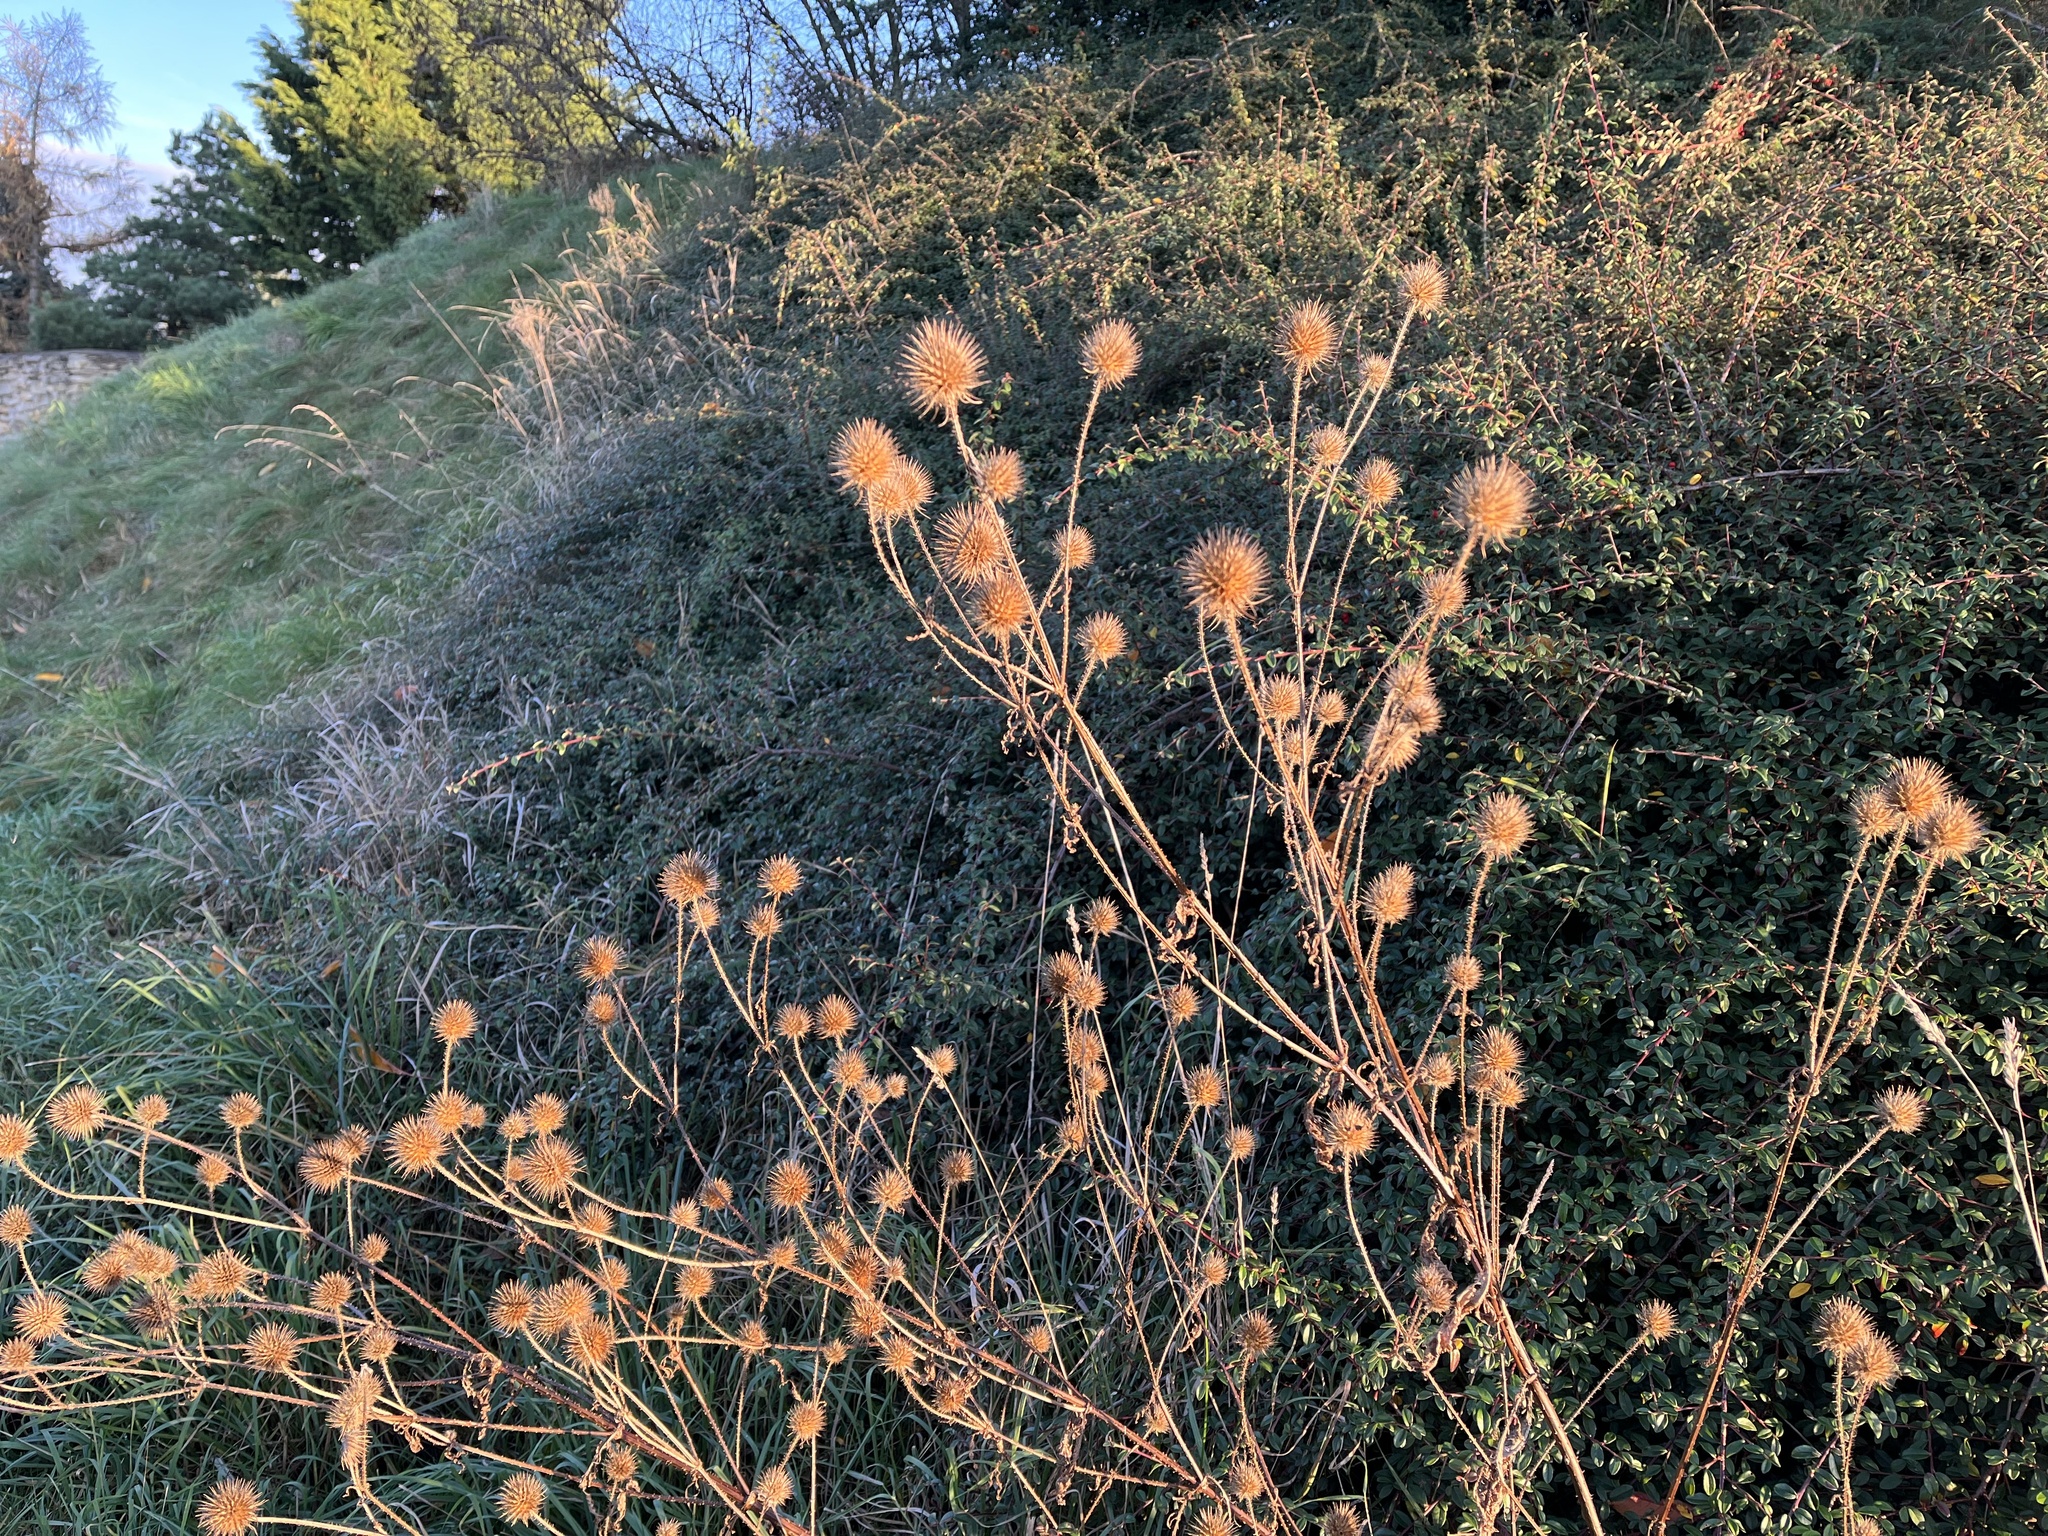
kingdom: Plantae
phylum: Tracheophyta
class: Magnoliopsida
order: Dipsacales
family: Caprifoliaceae
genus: Dipsacus
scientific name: Dipsacus strigosus
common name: Yellow-flowered teasel
